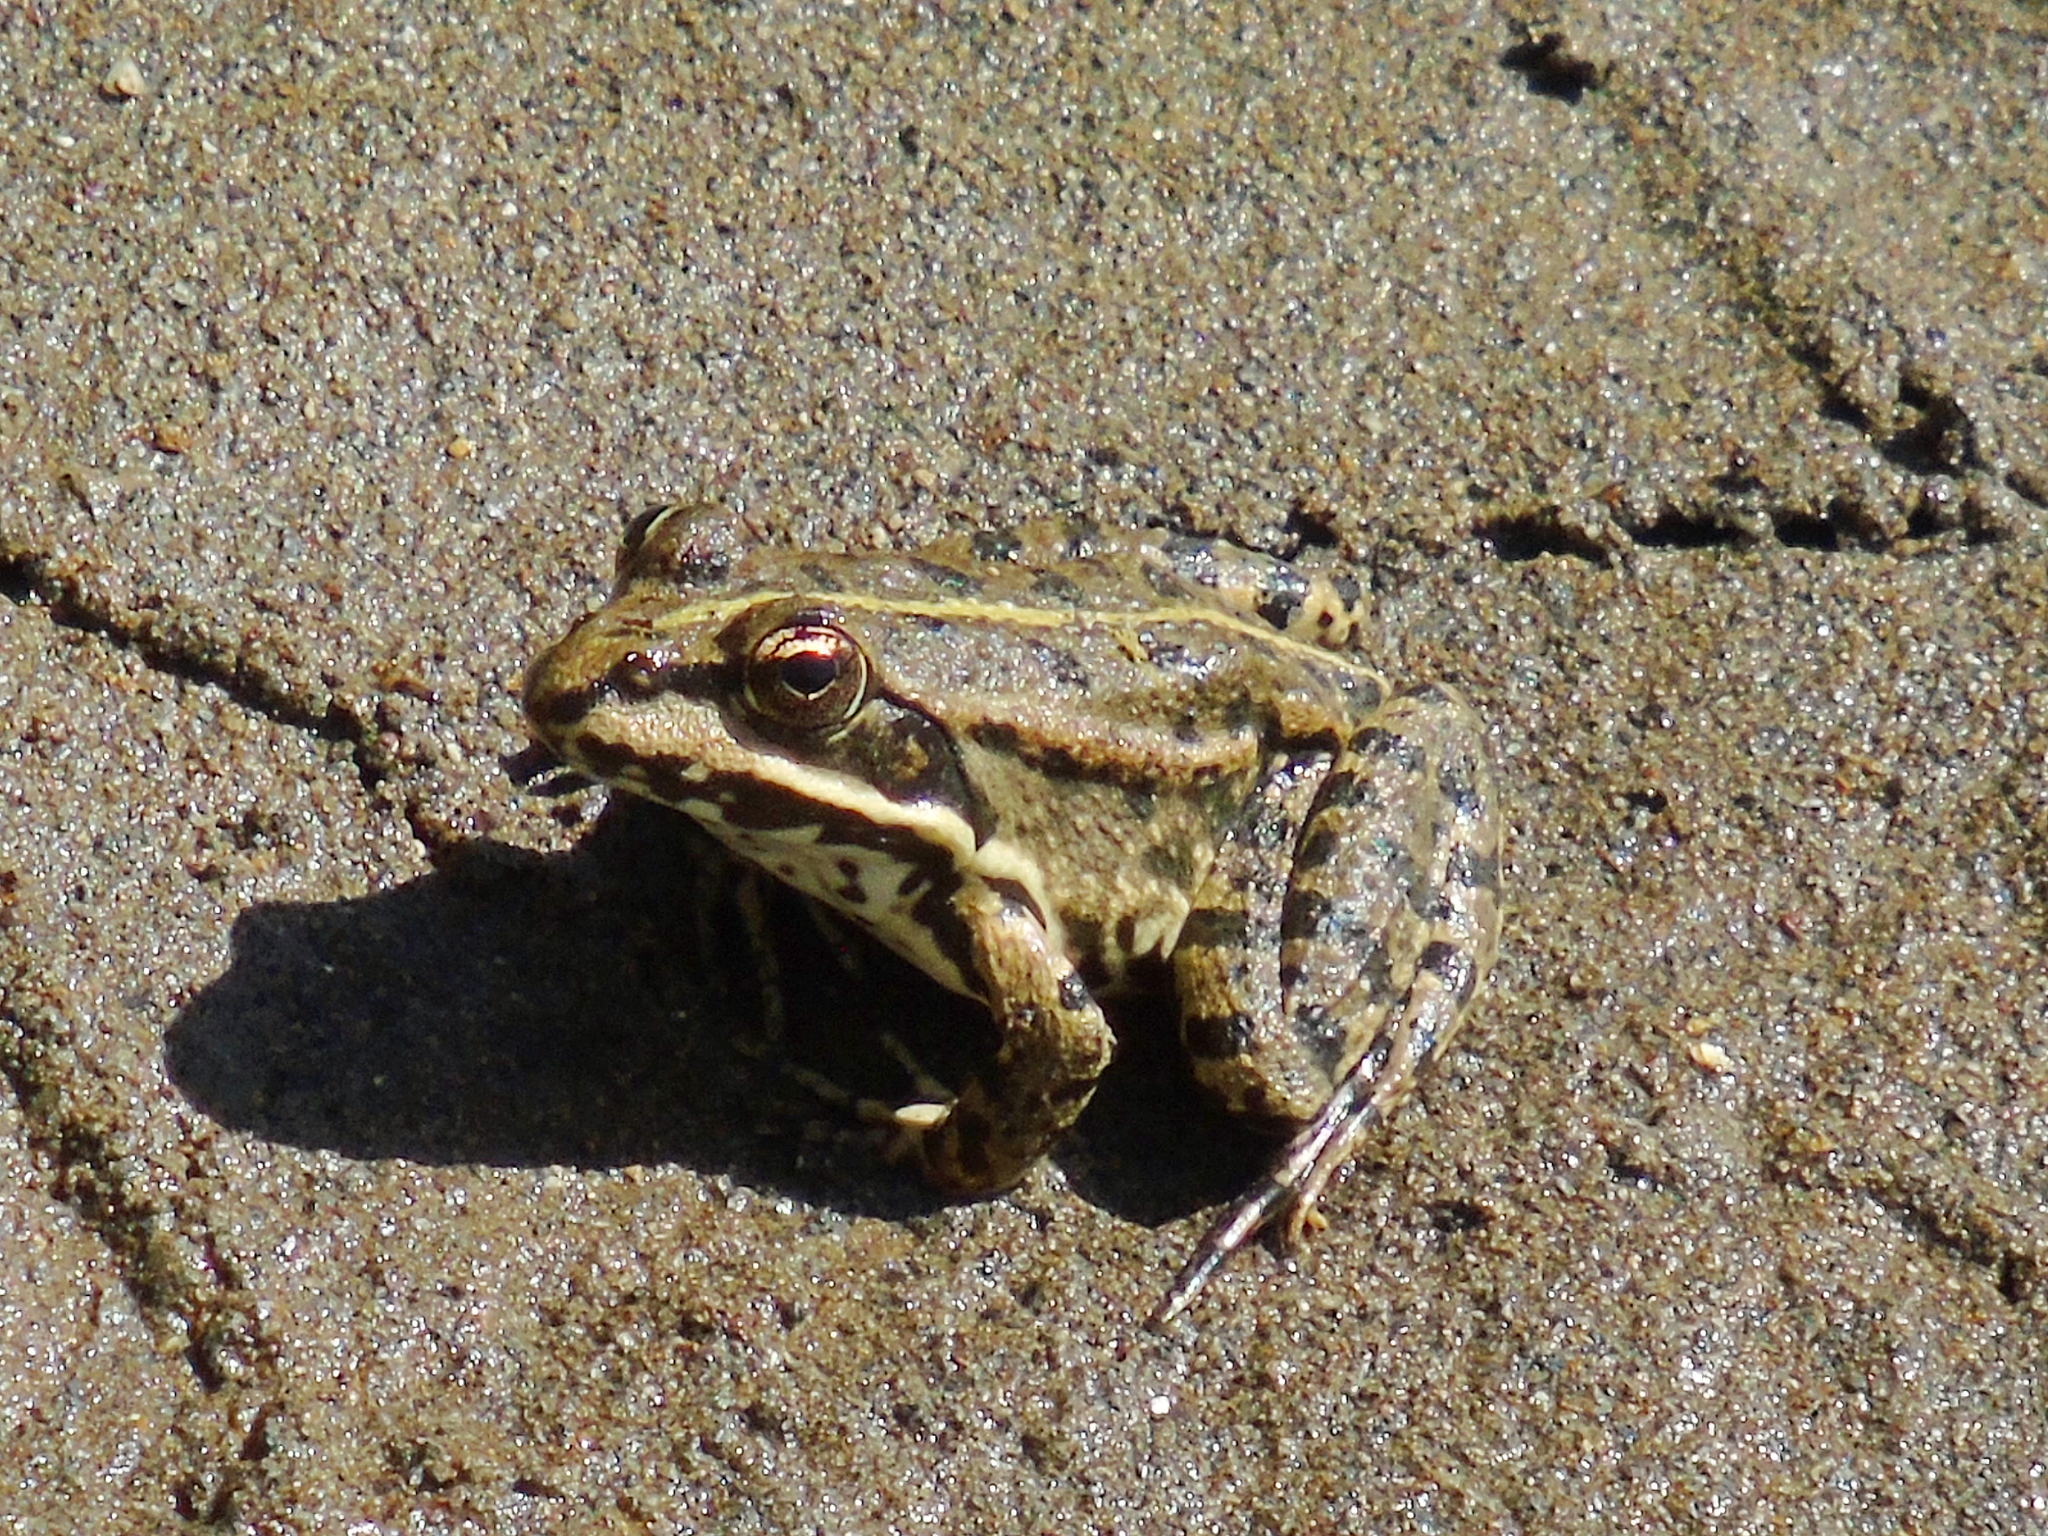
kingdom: Animalia
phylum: Chordata
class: Amphibia
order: Anura
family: Ranidae
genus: Pelophylax
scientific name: Pelophylax ridibundus
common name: Marsh frog
